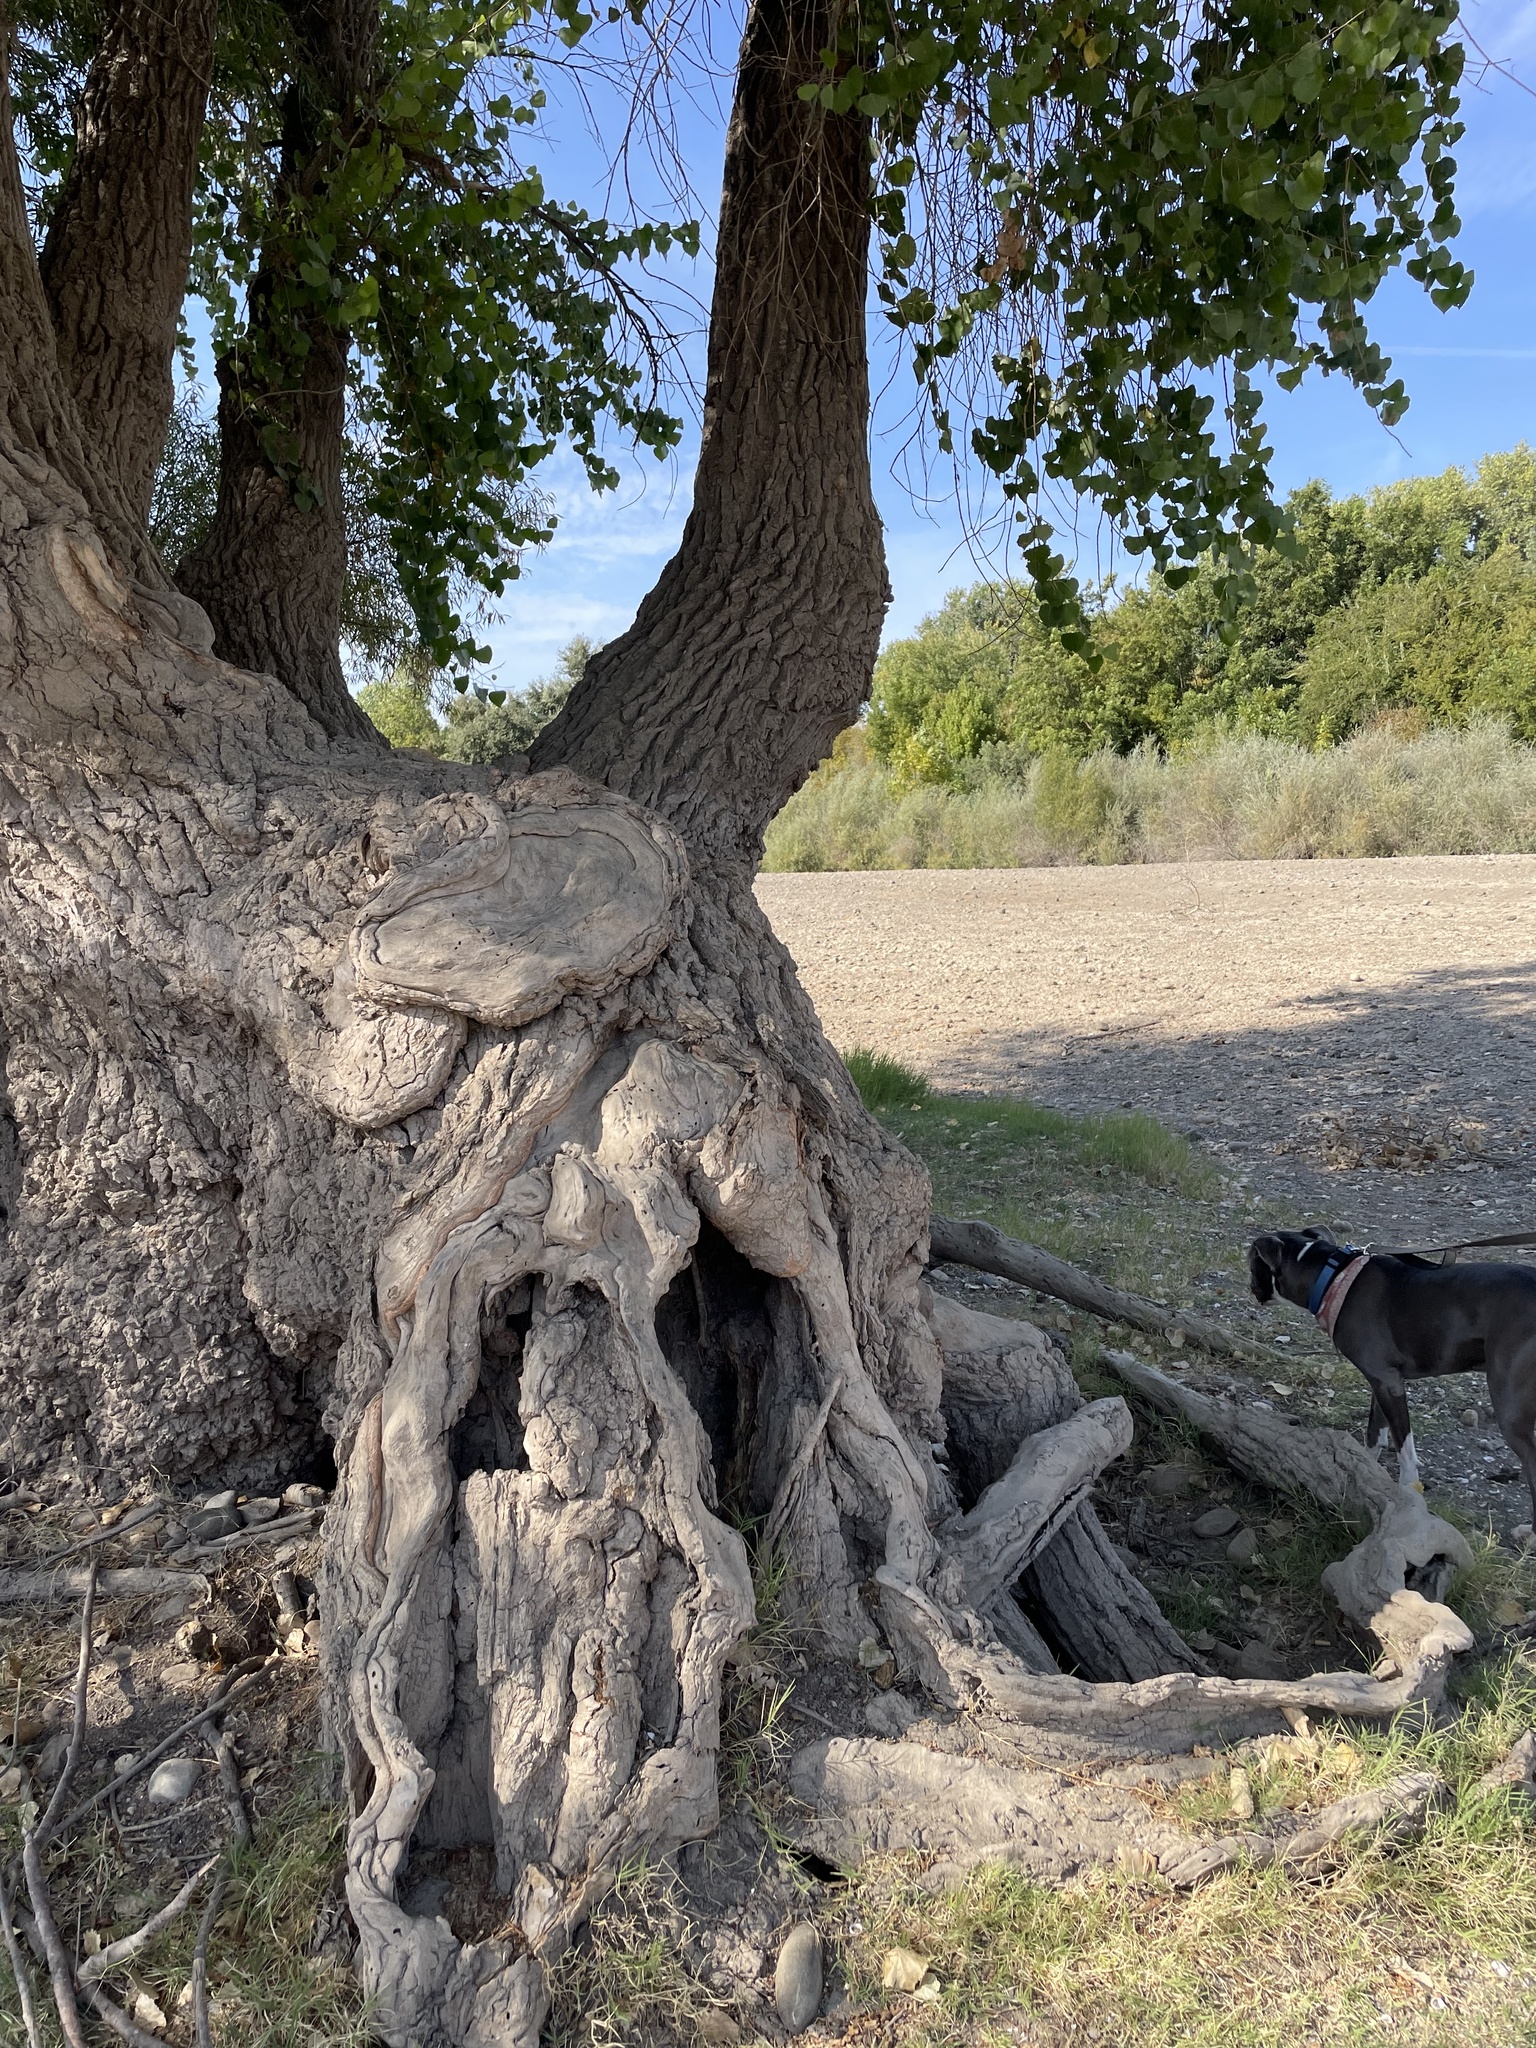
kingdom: Plantae
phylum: Tracheophyta
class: Magnoliopsida
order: Malpighiales
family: Salicaceae
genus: Populus
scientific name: Populus fremontii
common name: Fremont's cottonwood
